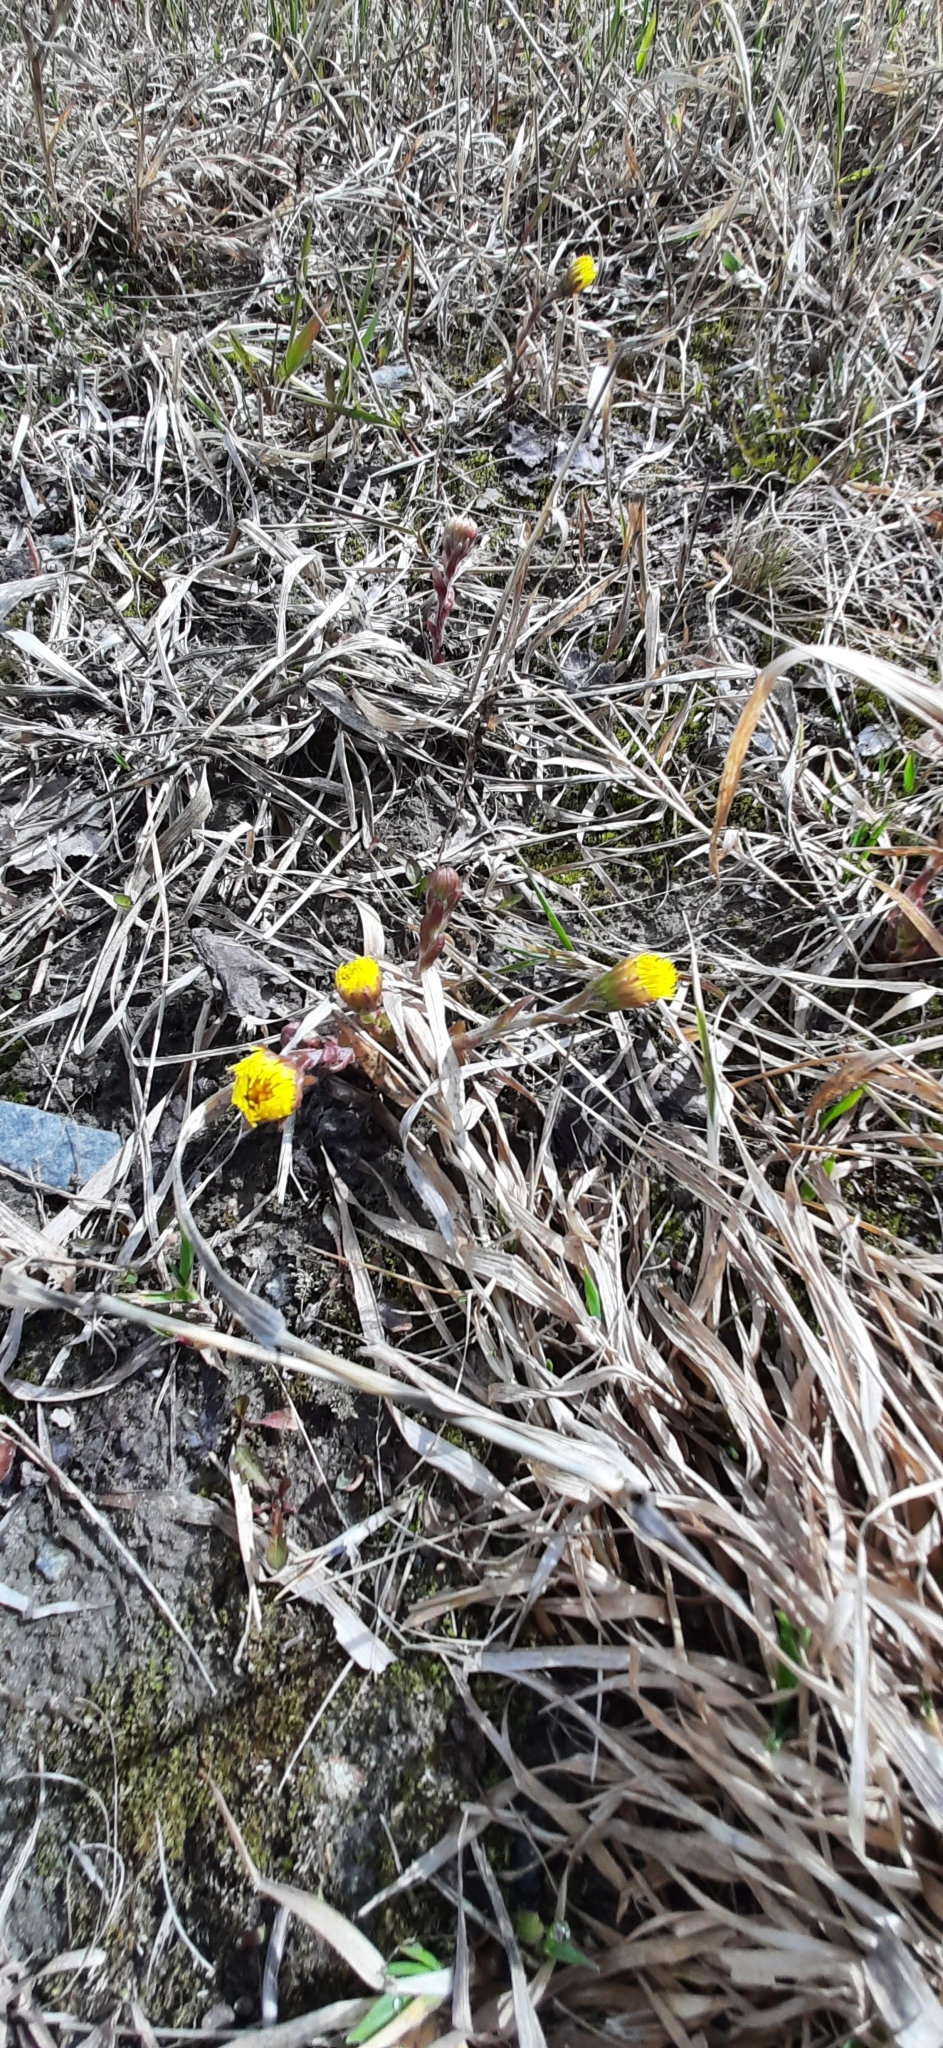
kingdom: Plantae
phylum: Tracheophyta
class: Magnoliopsida
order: Asterales
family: Asteraceae
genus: Tussilago
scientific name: Tussilago farfara
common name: Coltsfoot
